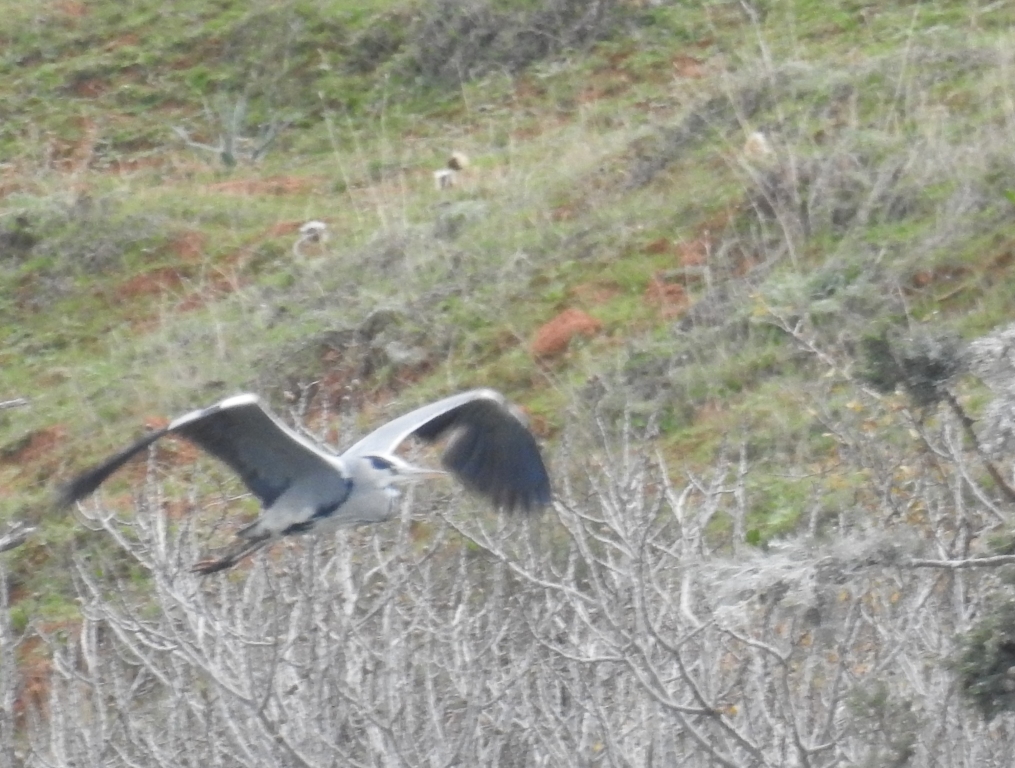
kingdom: Animalia
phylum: Chordata
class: Aves
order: Pelecaniformes
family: Ardeidae
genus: Ardea
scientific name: Ardea cinerea
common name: Grey heron
